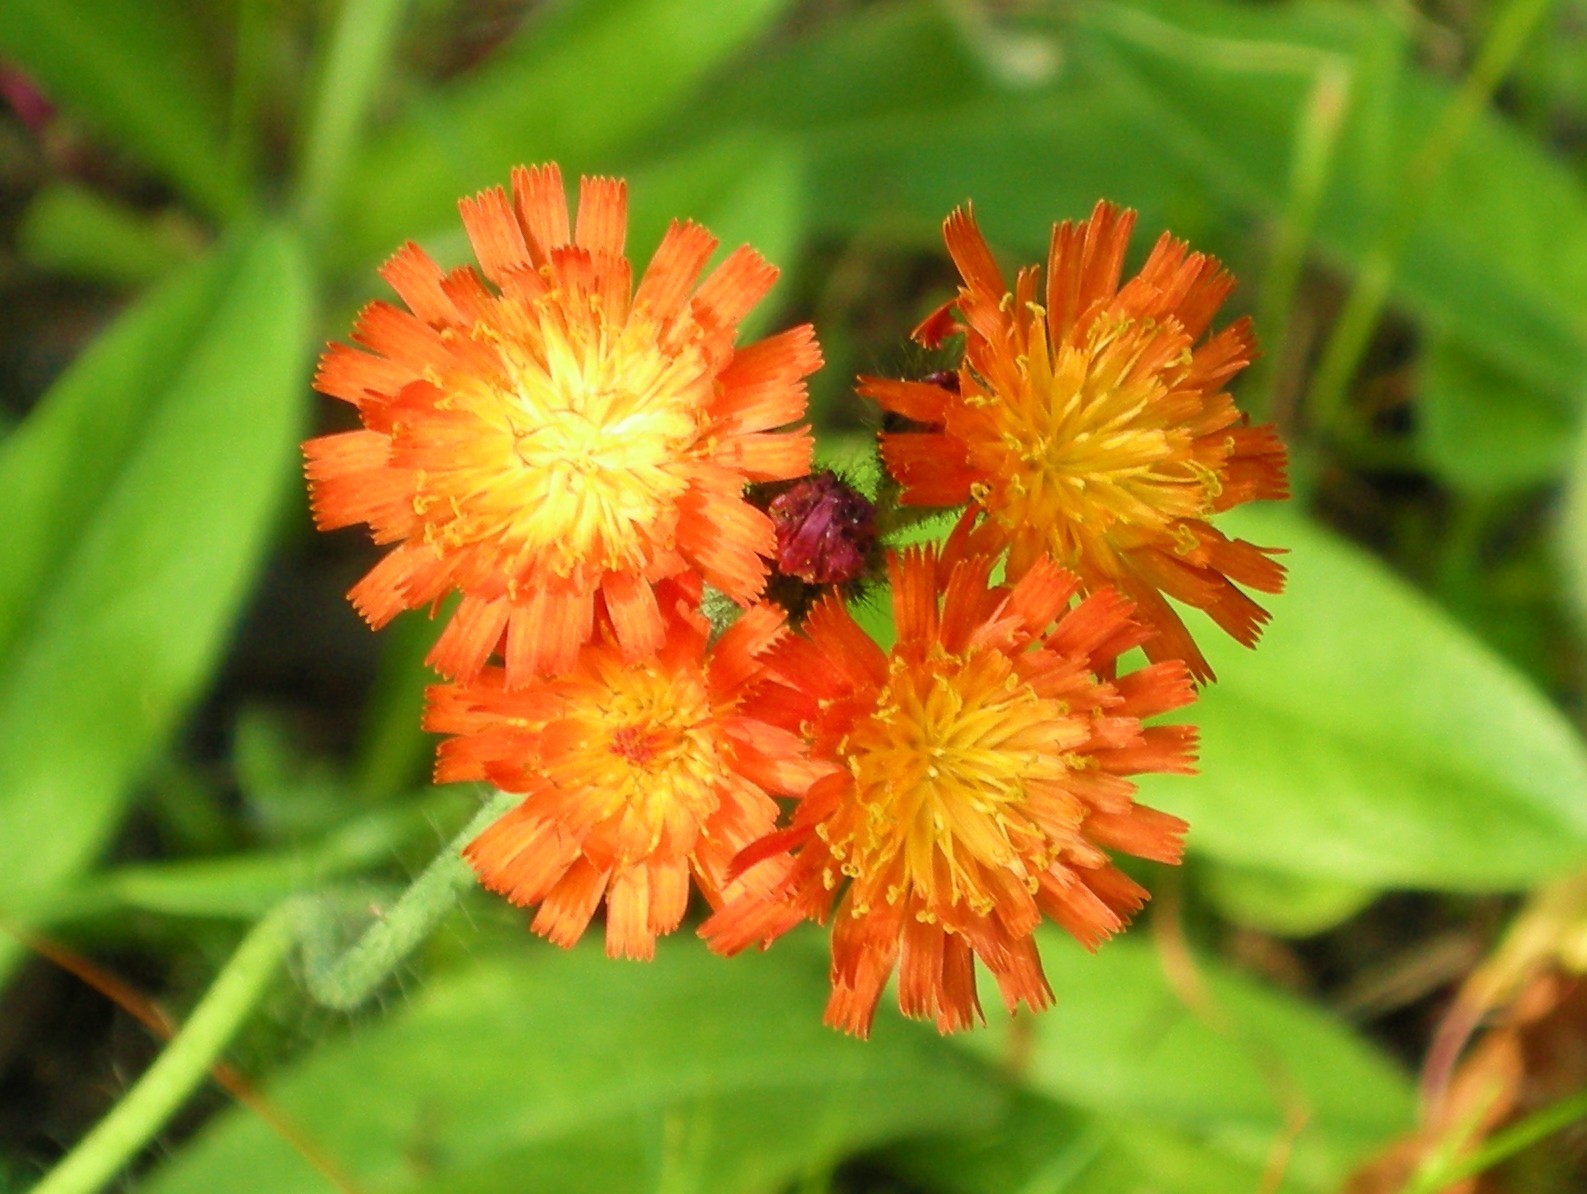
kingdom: Plantae
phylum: Tracheophyta
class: Magnoliopsida
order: Asterales
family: Asteraceae
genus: Pilosella
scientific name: Pilosella aurantiaca
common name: Fox-and-cubs
